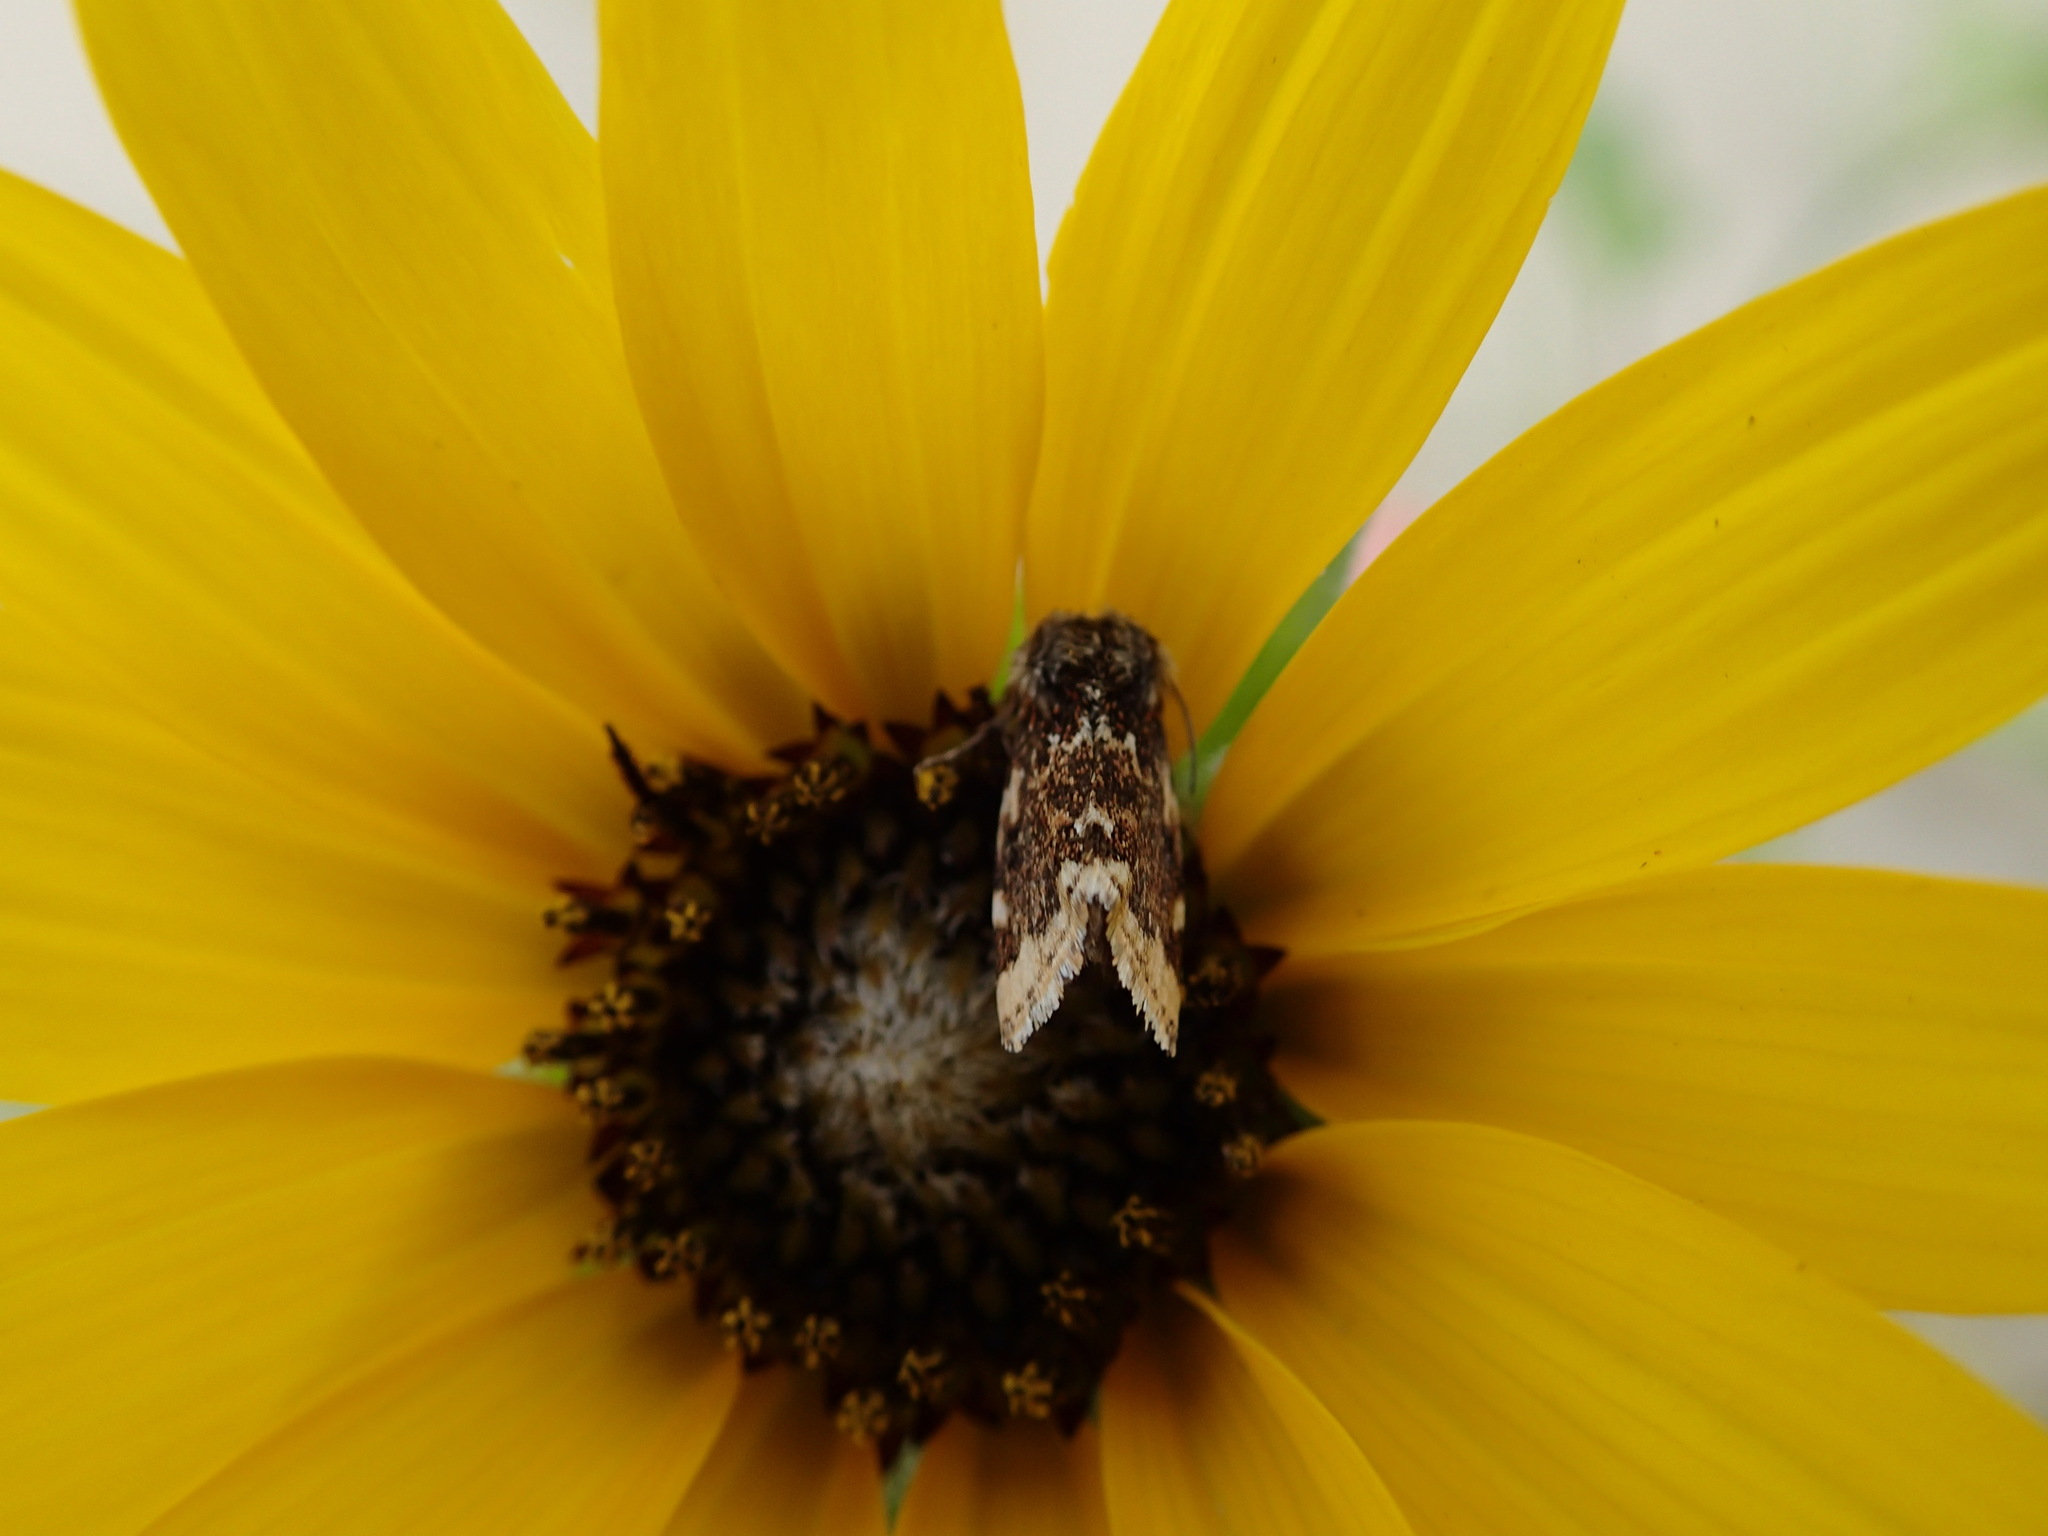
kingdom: Animalia
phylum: Arthropoda
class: Insecta
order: Lepidoptera
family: Noctuidae
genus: Schinia
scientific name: Schinia avemensis
